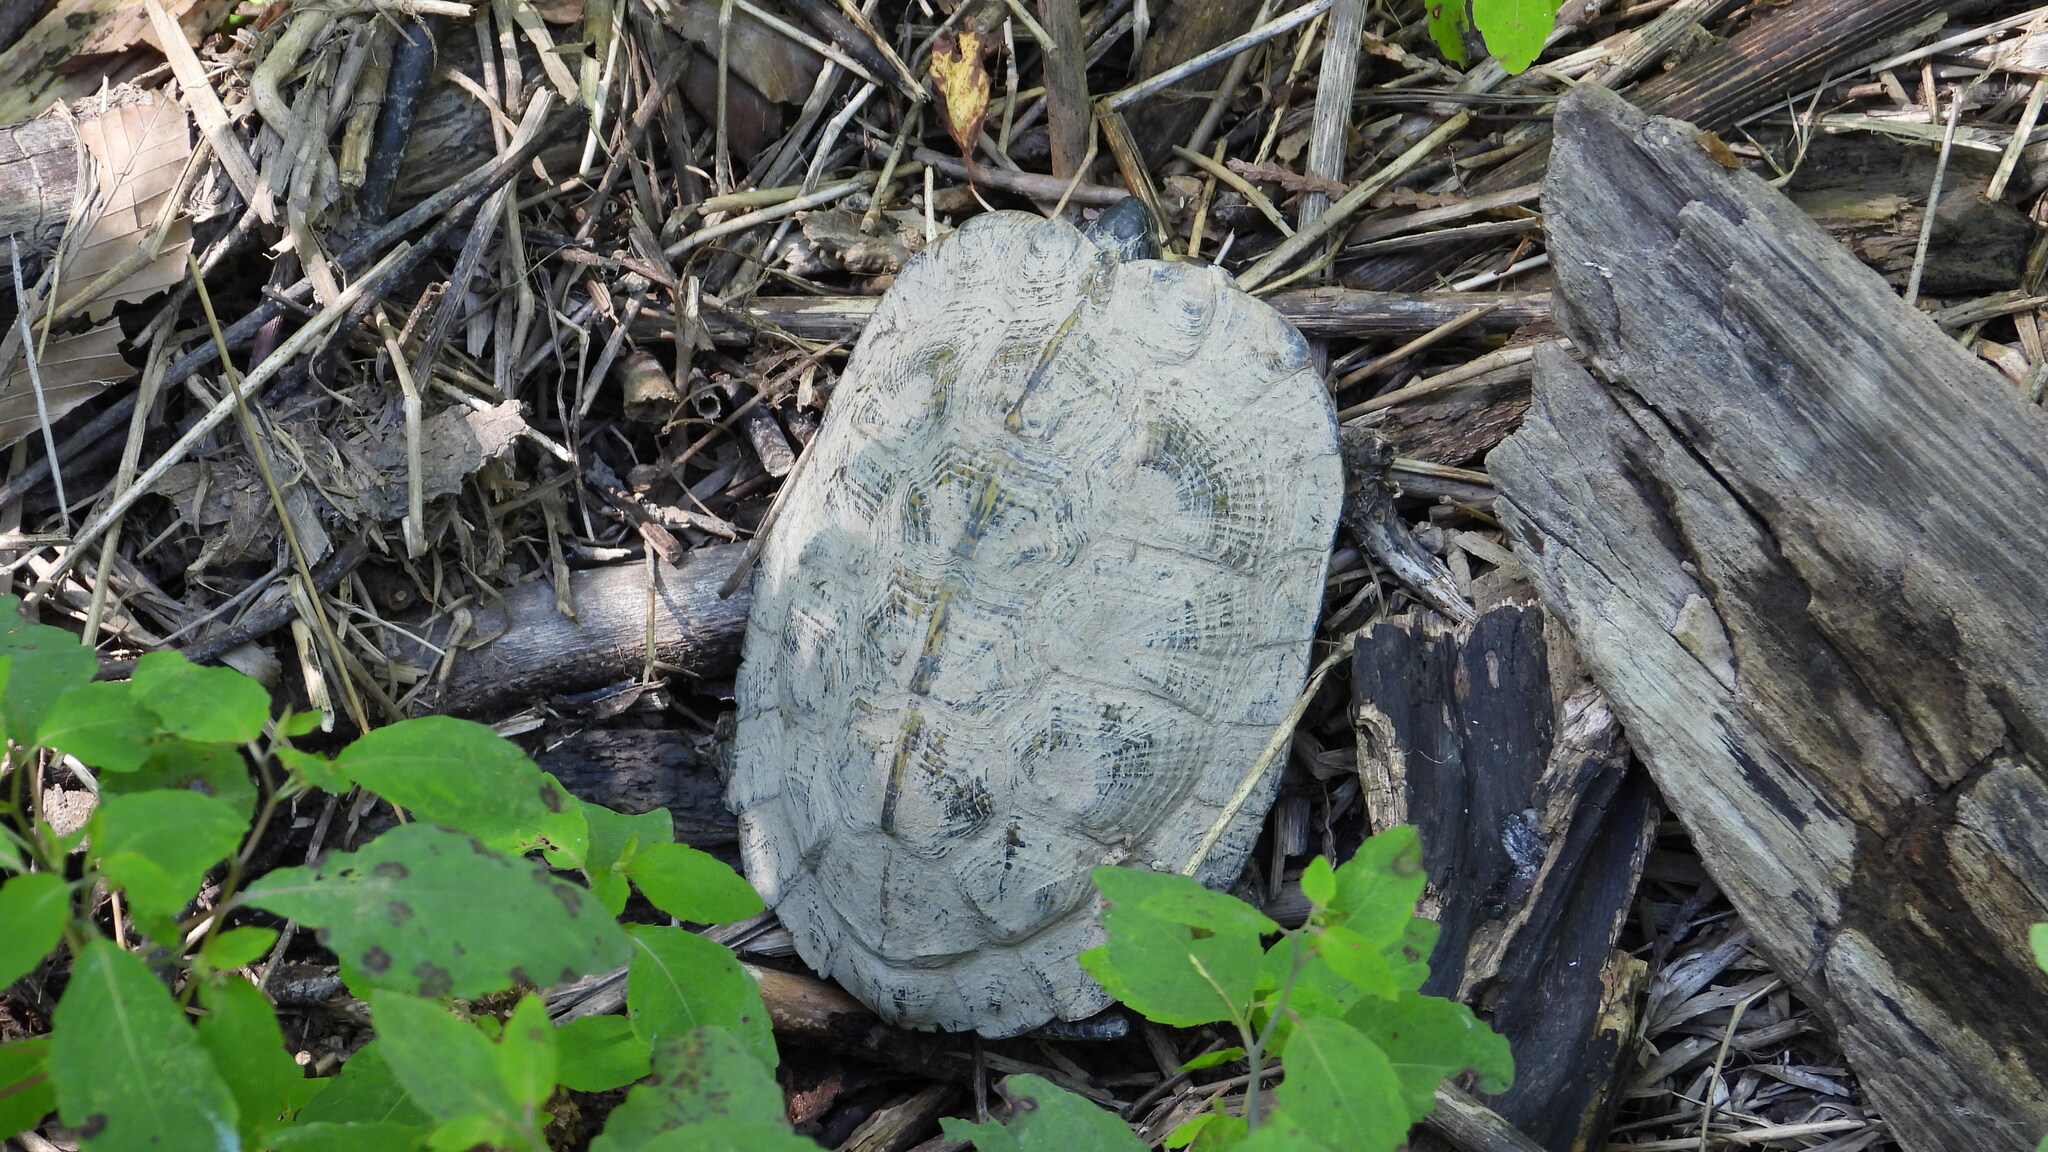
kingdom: Animalia
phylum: Chordata
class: Testudines
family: Emydidae
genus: Glyptemys
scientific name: Glyptemys insculpta
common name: Wood turtle
